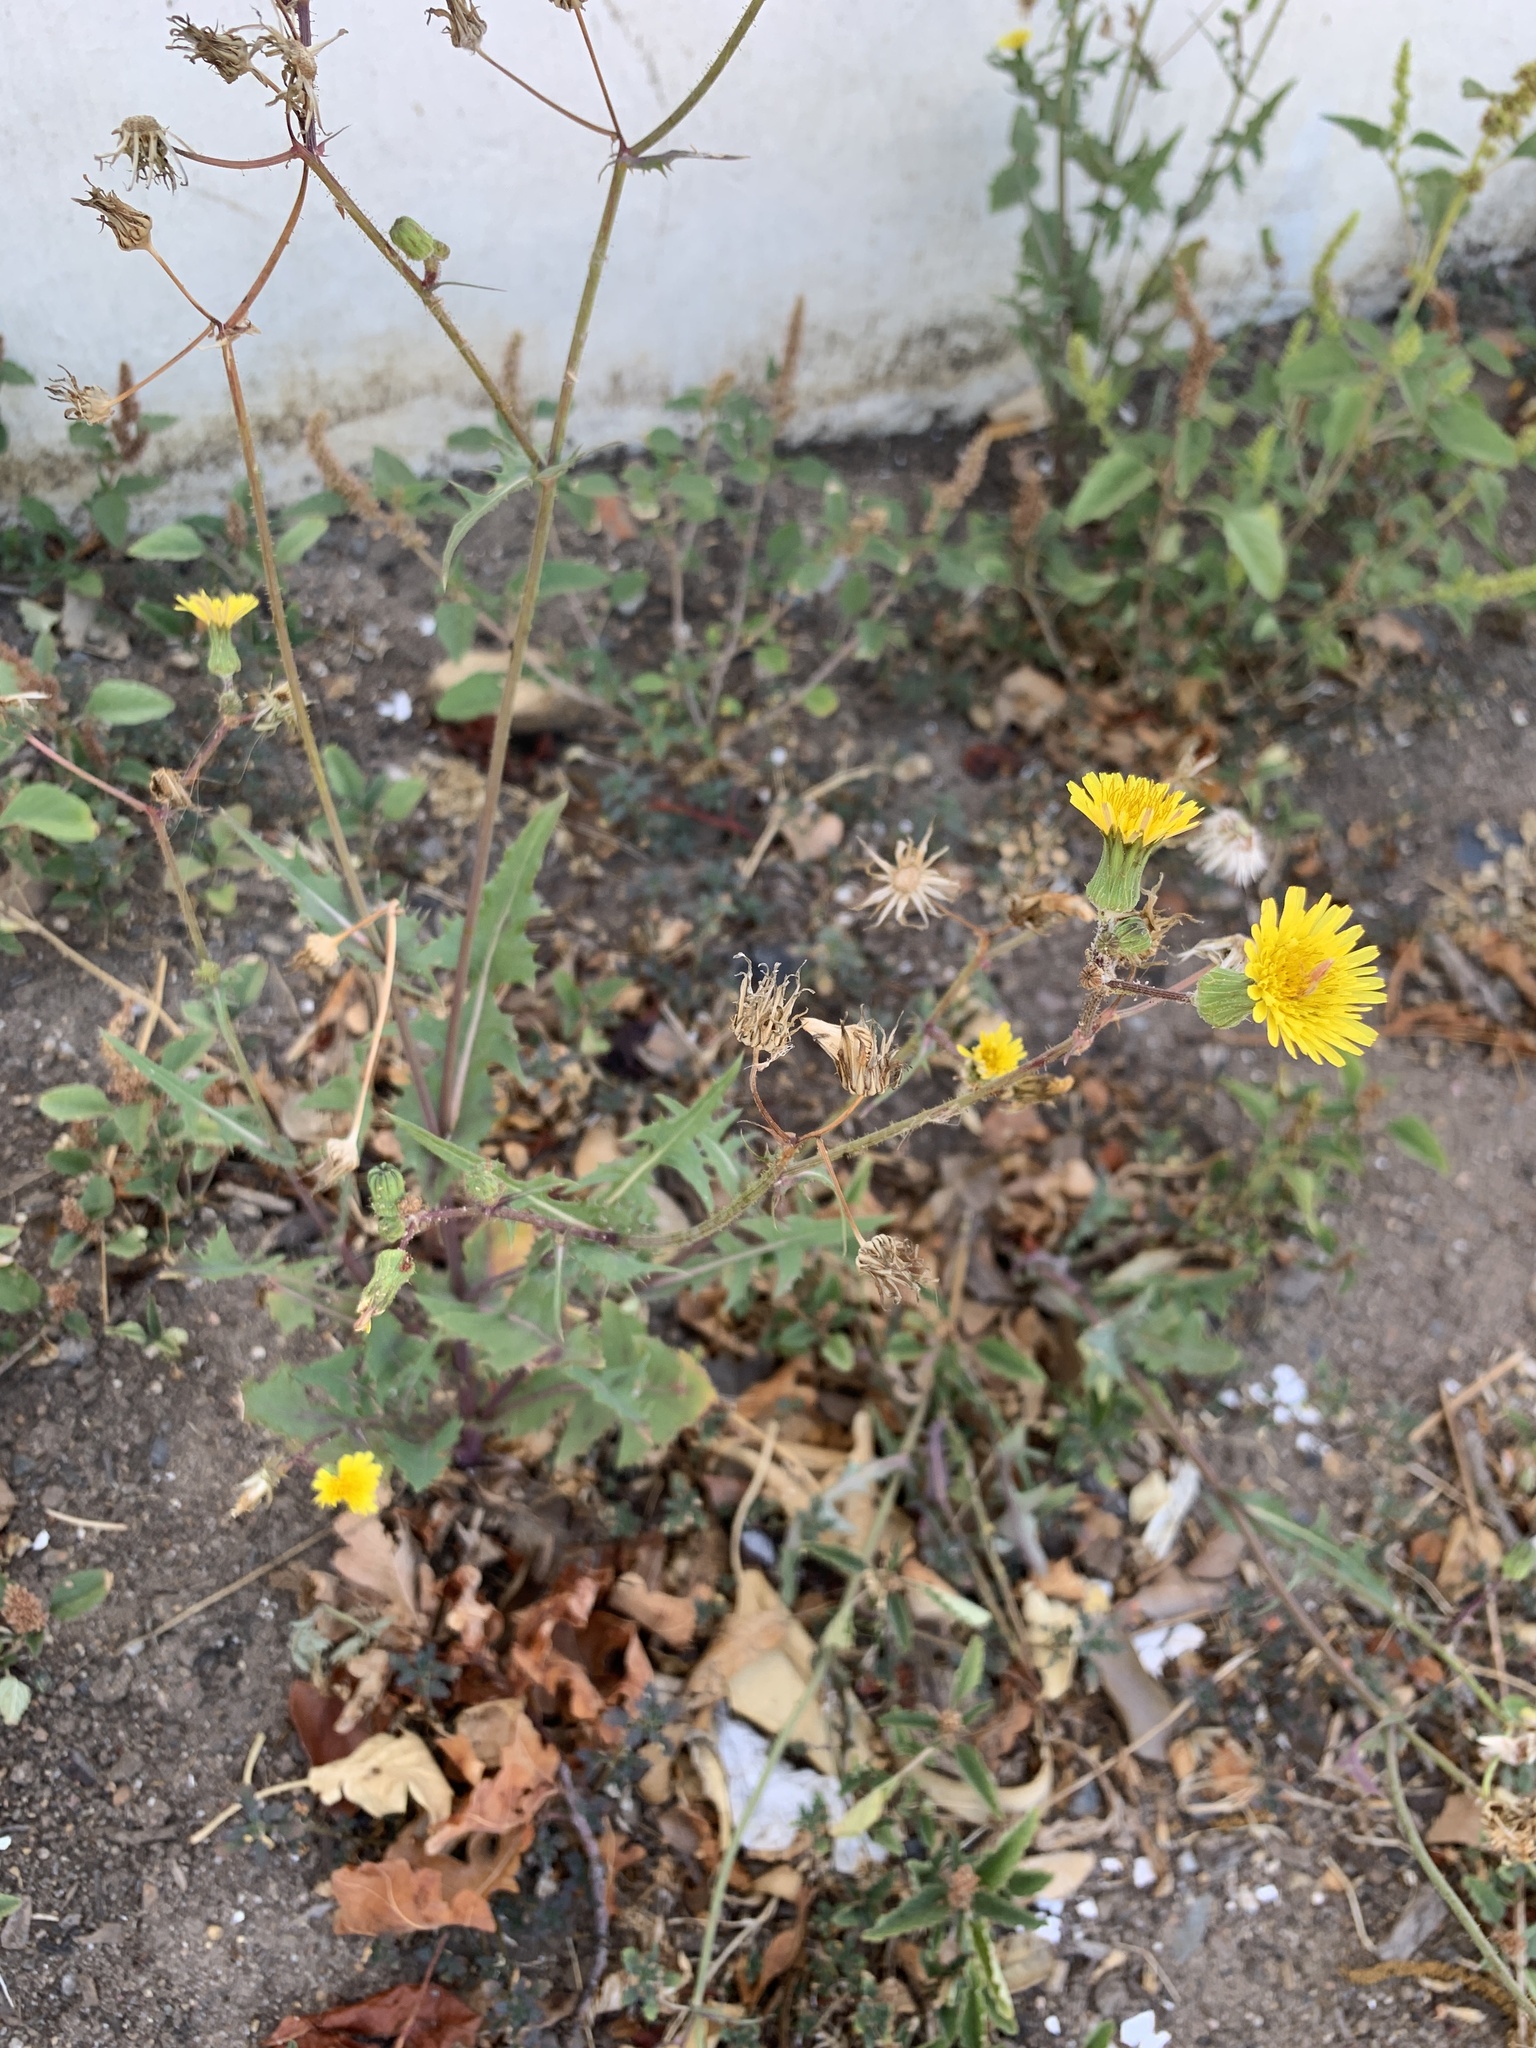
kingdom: Plantae
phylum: Tracheophyta
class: Magnoliopsida
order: Asterales
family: Asteraceae
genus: Sonchus
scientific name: Sonchus oleraceus
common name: Common sowthistle
